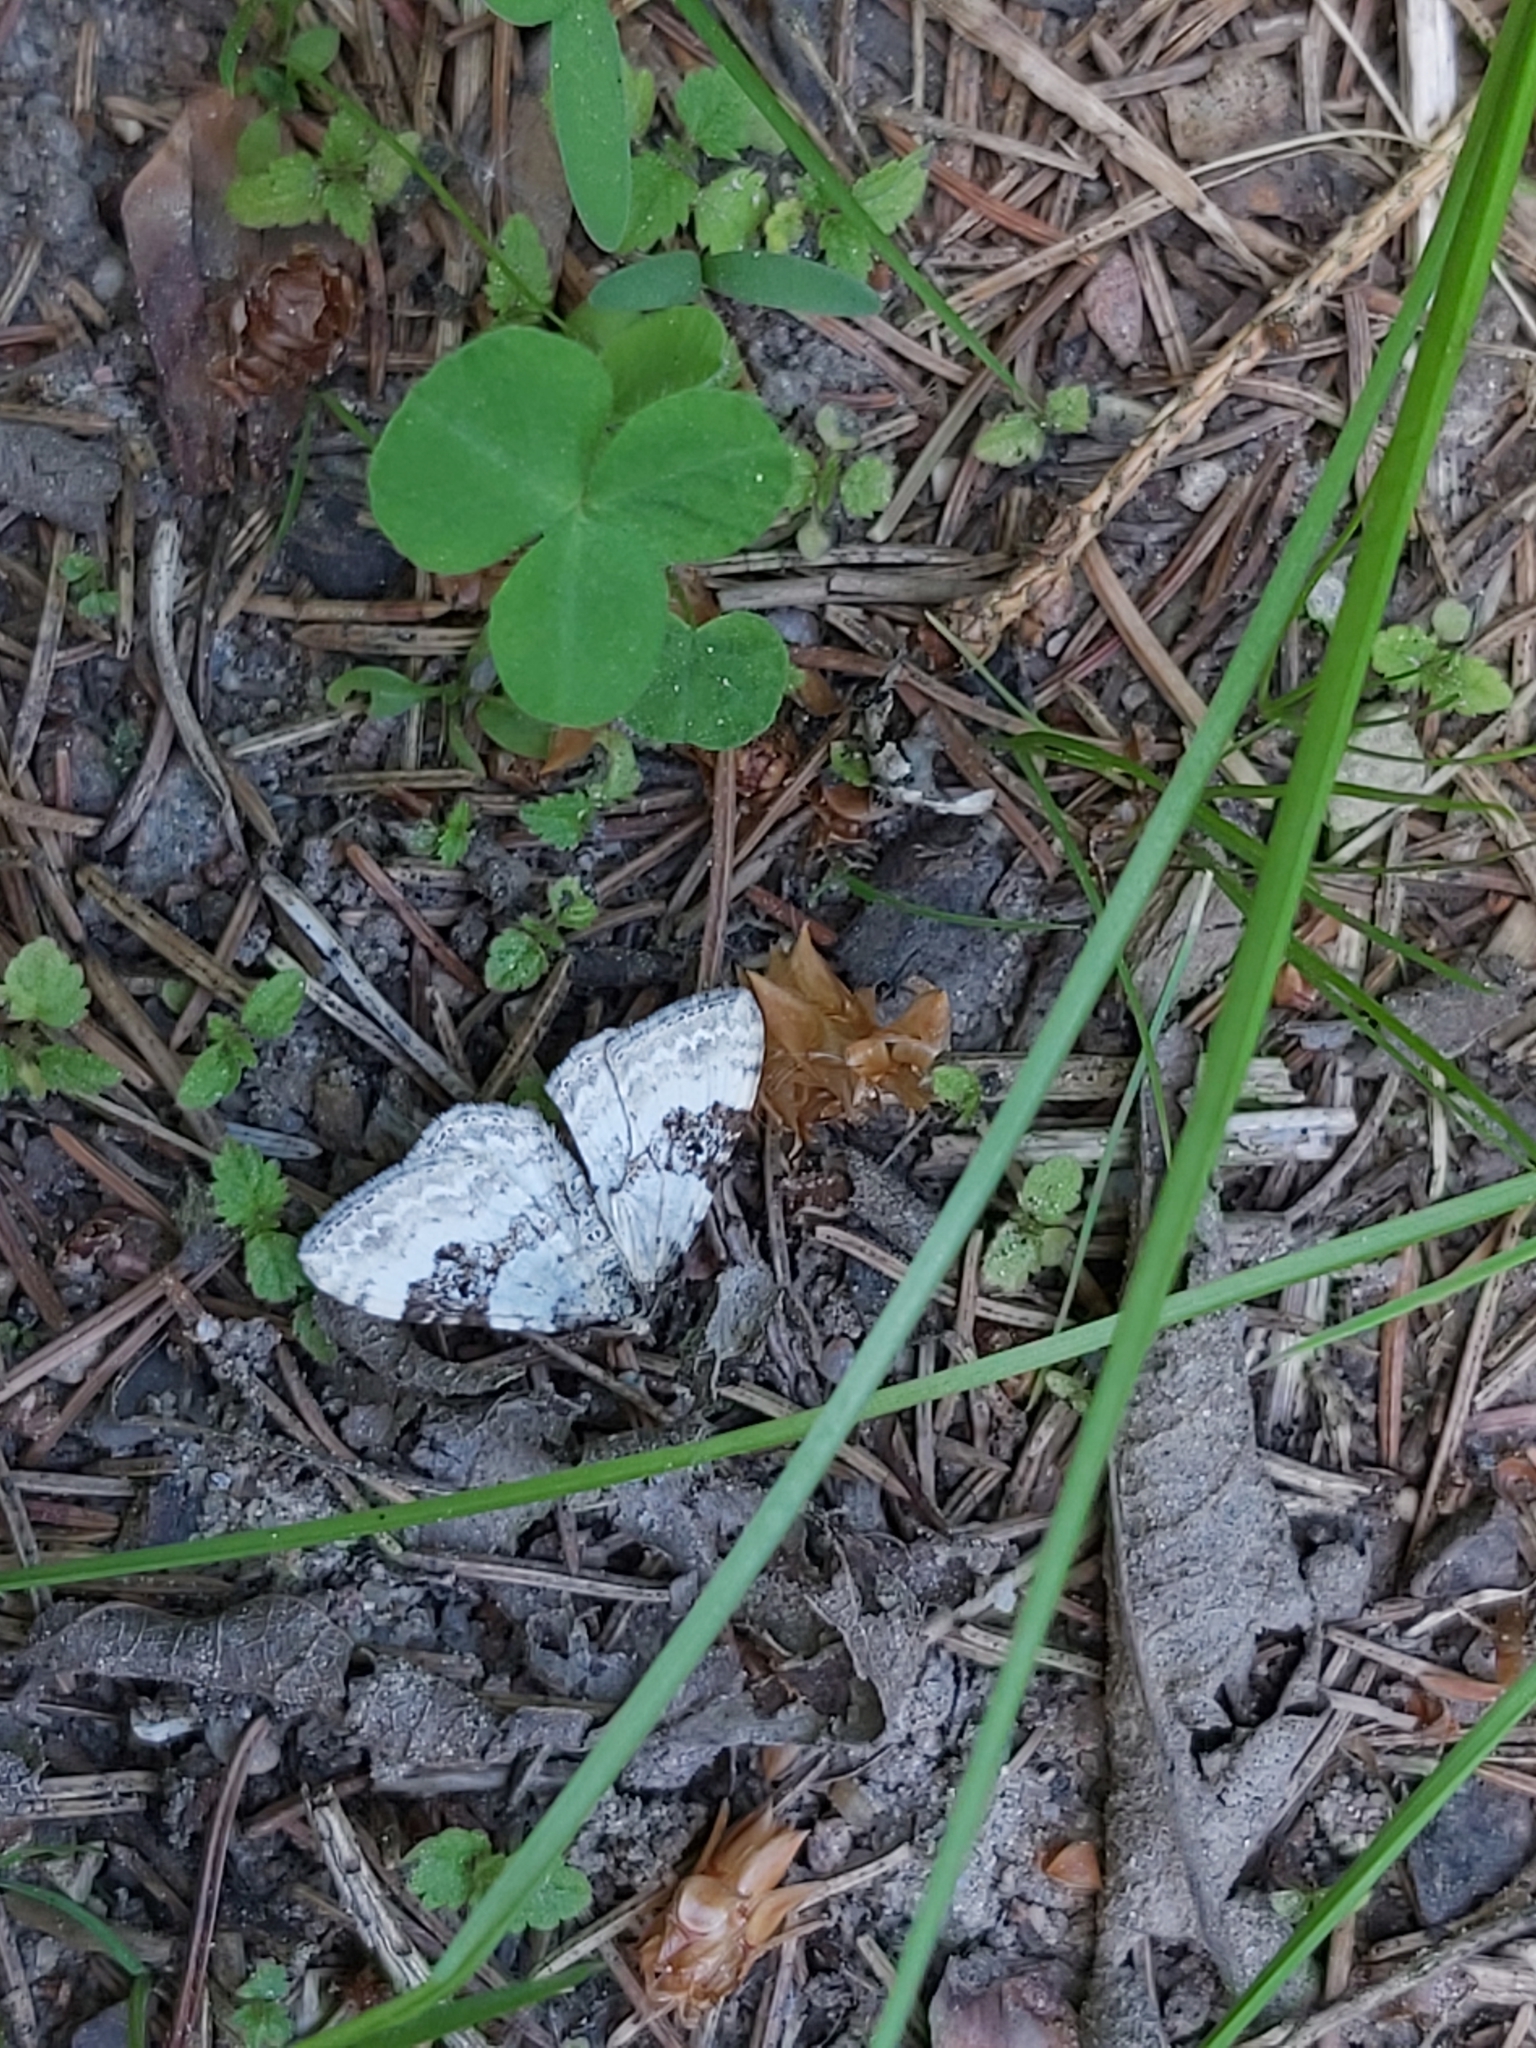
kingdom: Animalia
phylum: Arthropoda
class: Insecta
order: Lepidoptera
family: Geometridae
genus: Xanthorhoe
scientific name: Xanthorhoe montanata
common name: Silver-ground carpet
